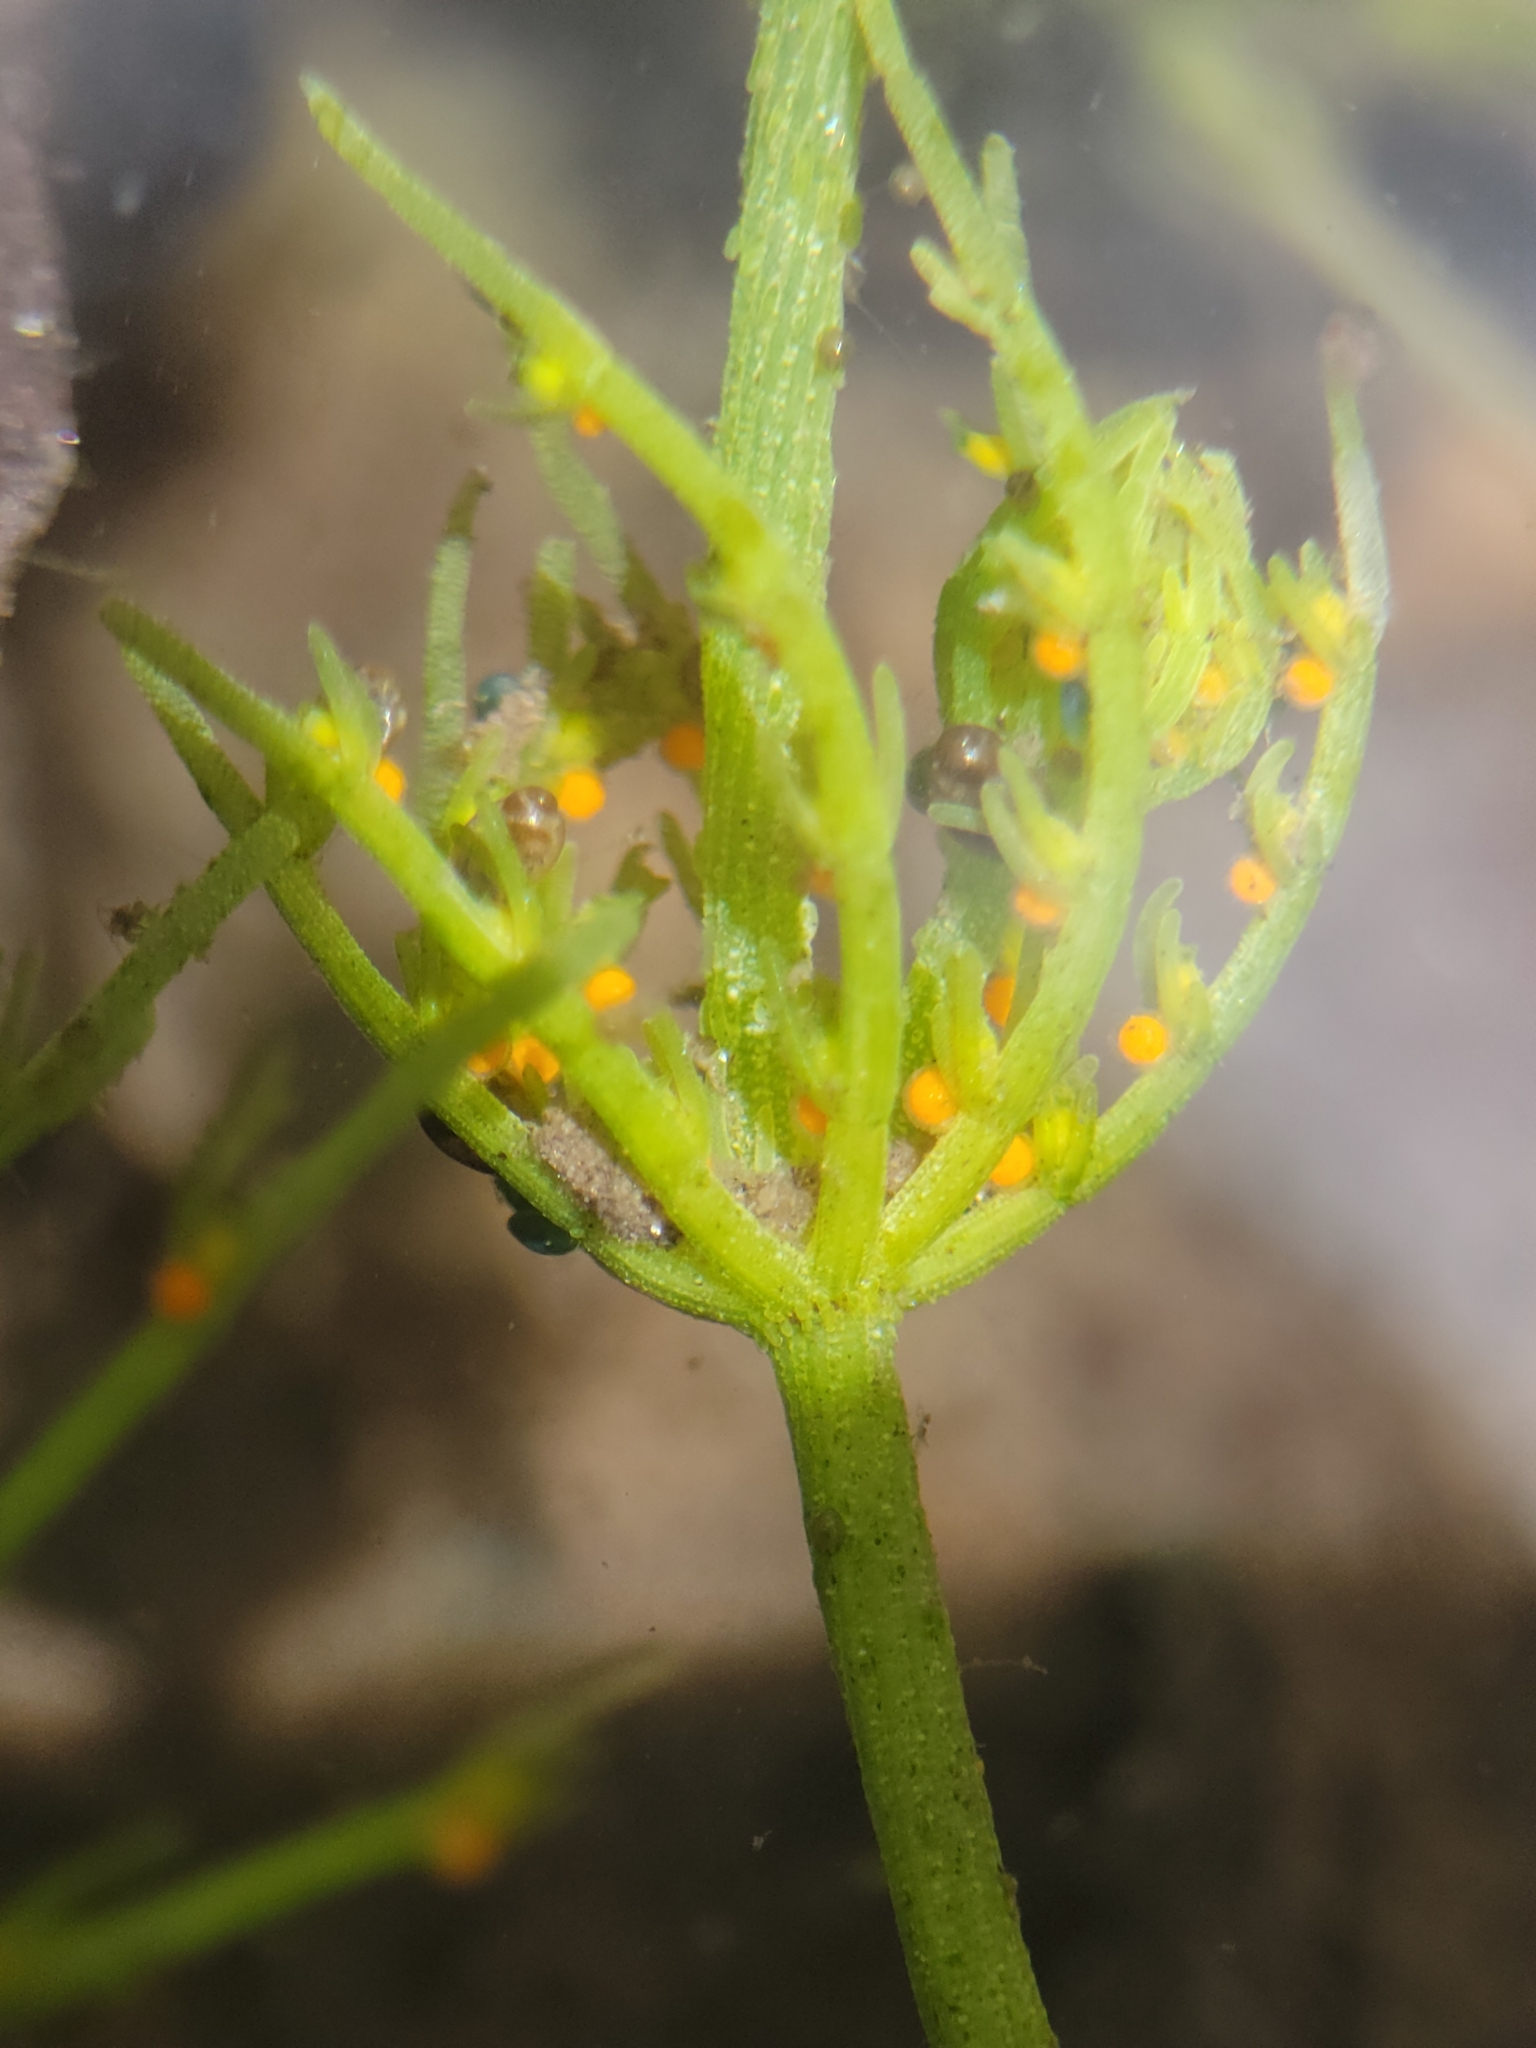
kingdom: Plantae
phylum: Charophyta
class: Charophyceae
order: Charales
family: Characeae
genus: Chara
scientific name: Chara vulgaris
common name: Common stonewort
